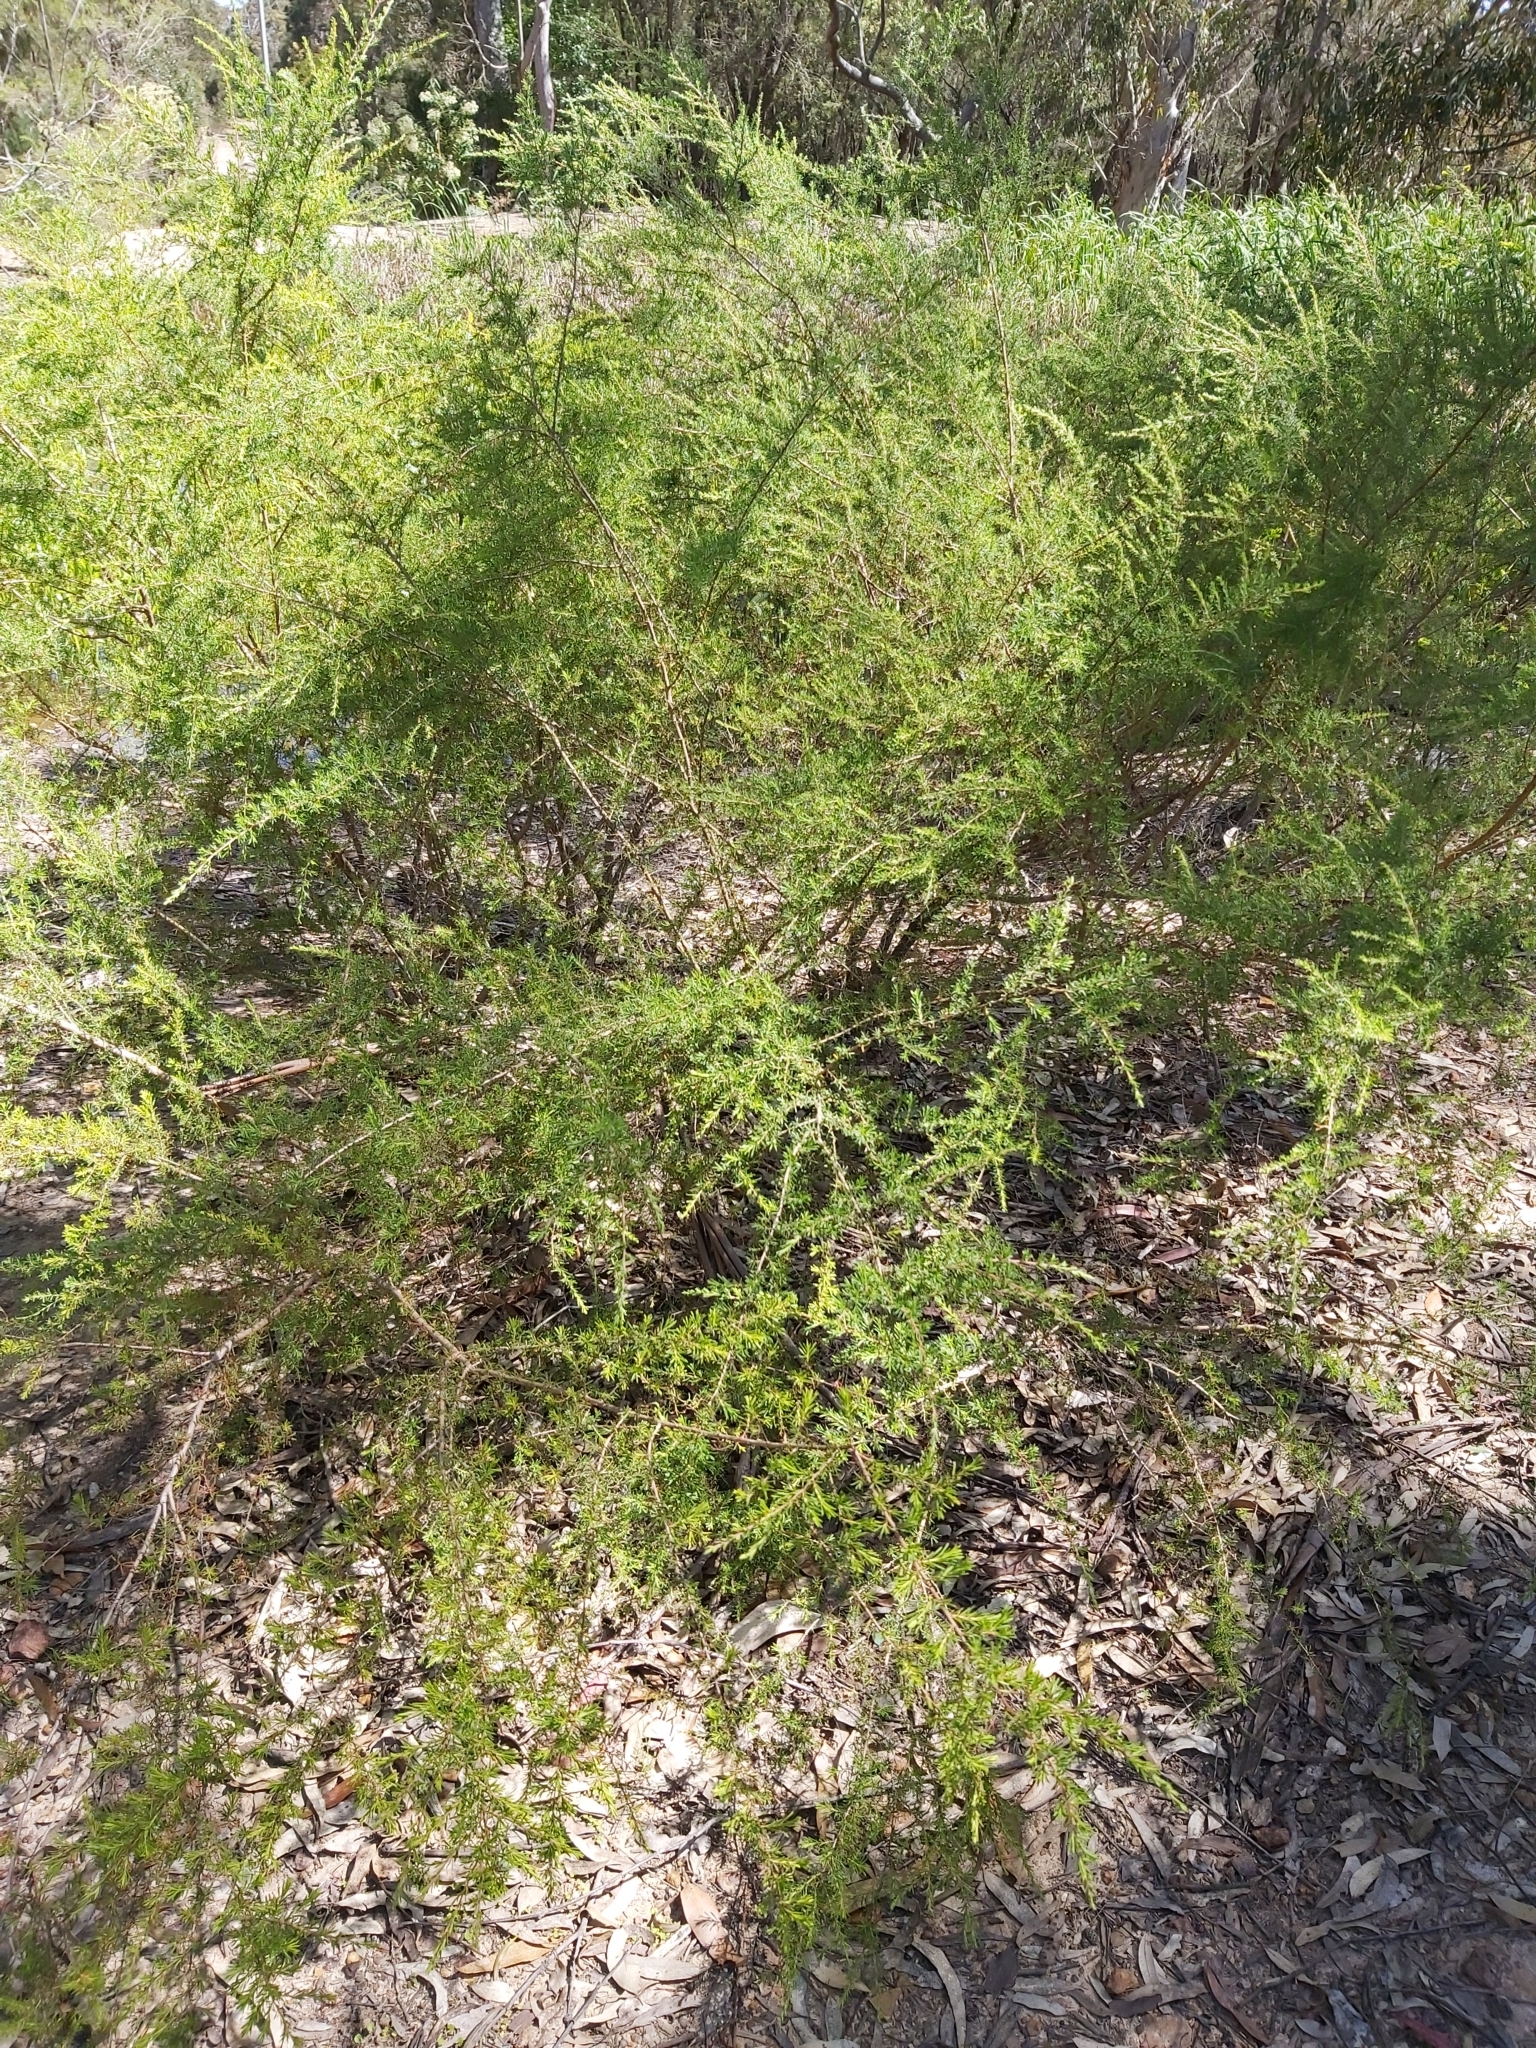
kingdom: Plantae
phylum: Tracheophyta
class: Magnoliopsida
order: Myrtales
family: Myrtaceae
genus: Kunzea
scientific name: Kunzea ambigua
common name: Tickbush
